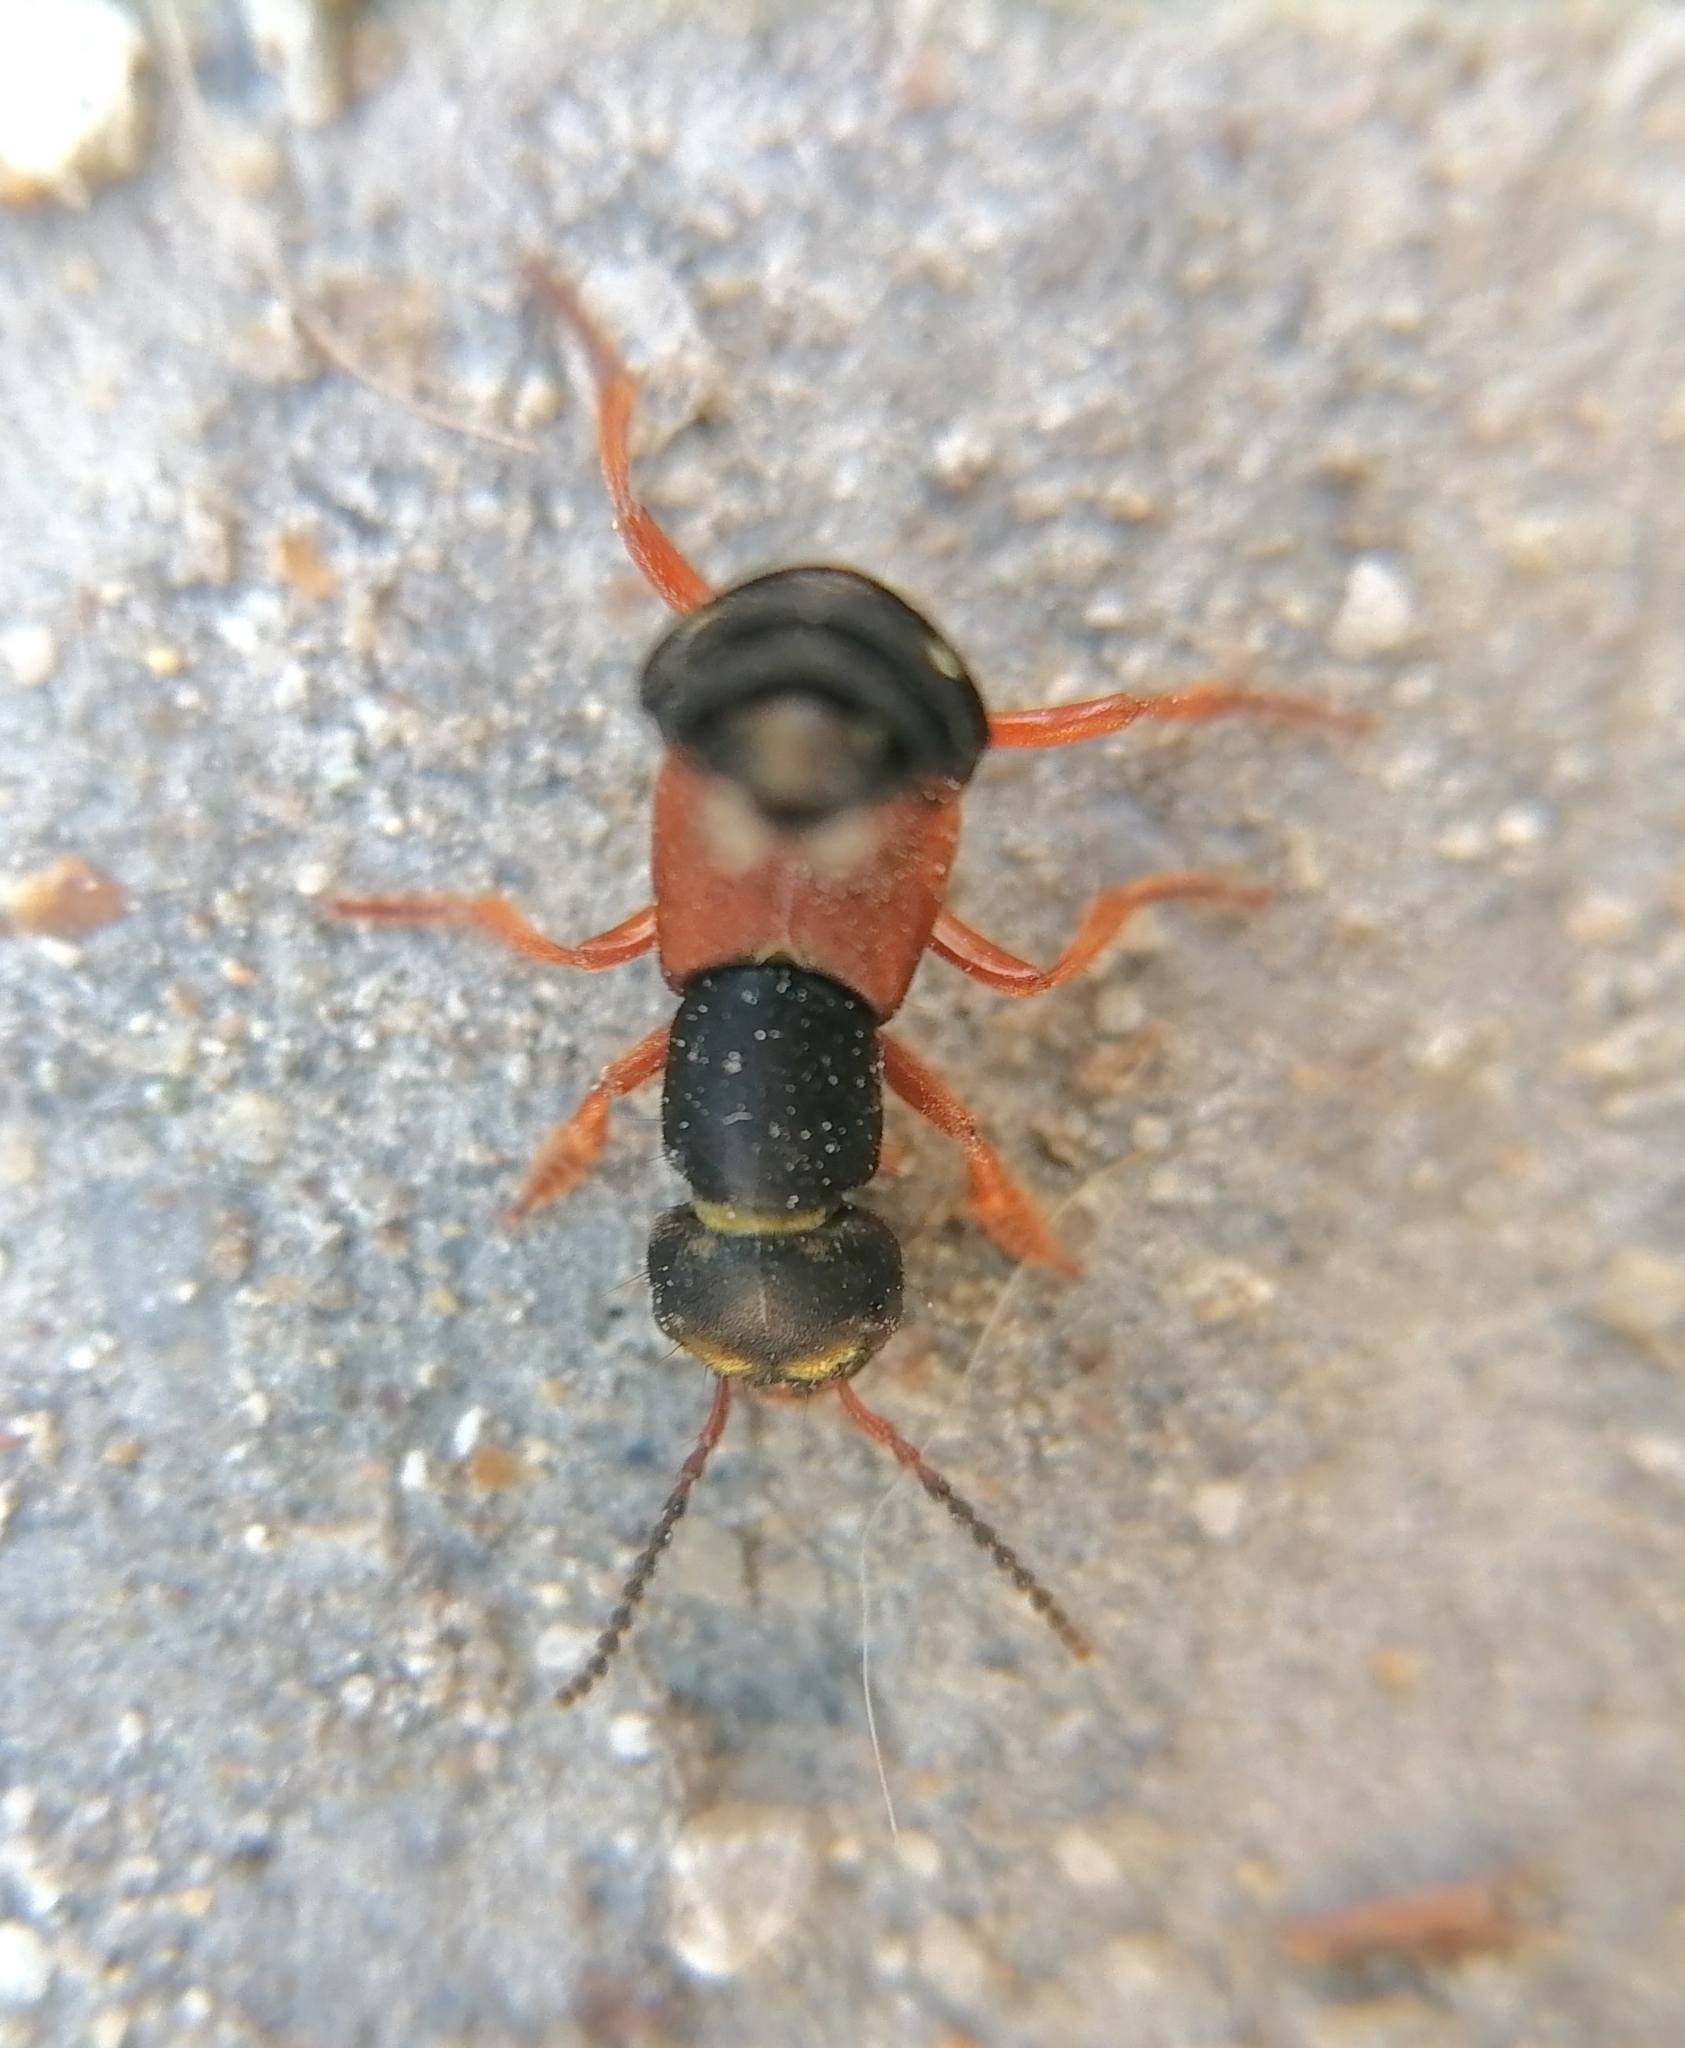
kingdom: Animalia
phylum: Arthropoda
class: Insecta
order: Coleoptera
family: Staphylinidae
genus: Staphylinus
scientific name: Staphylinus erythropterus
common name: Staph beetle
